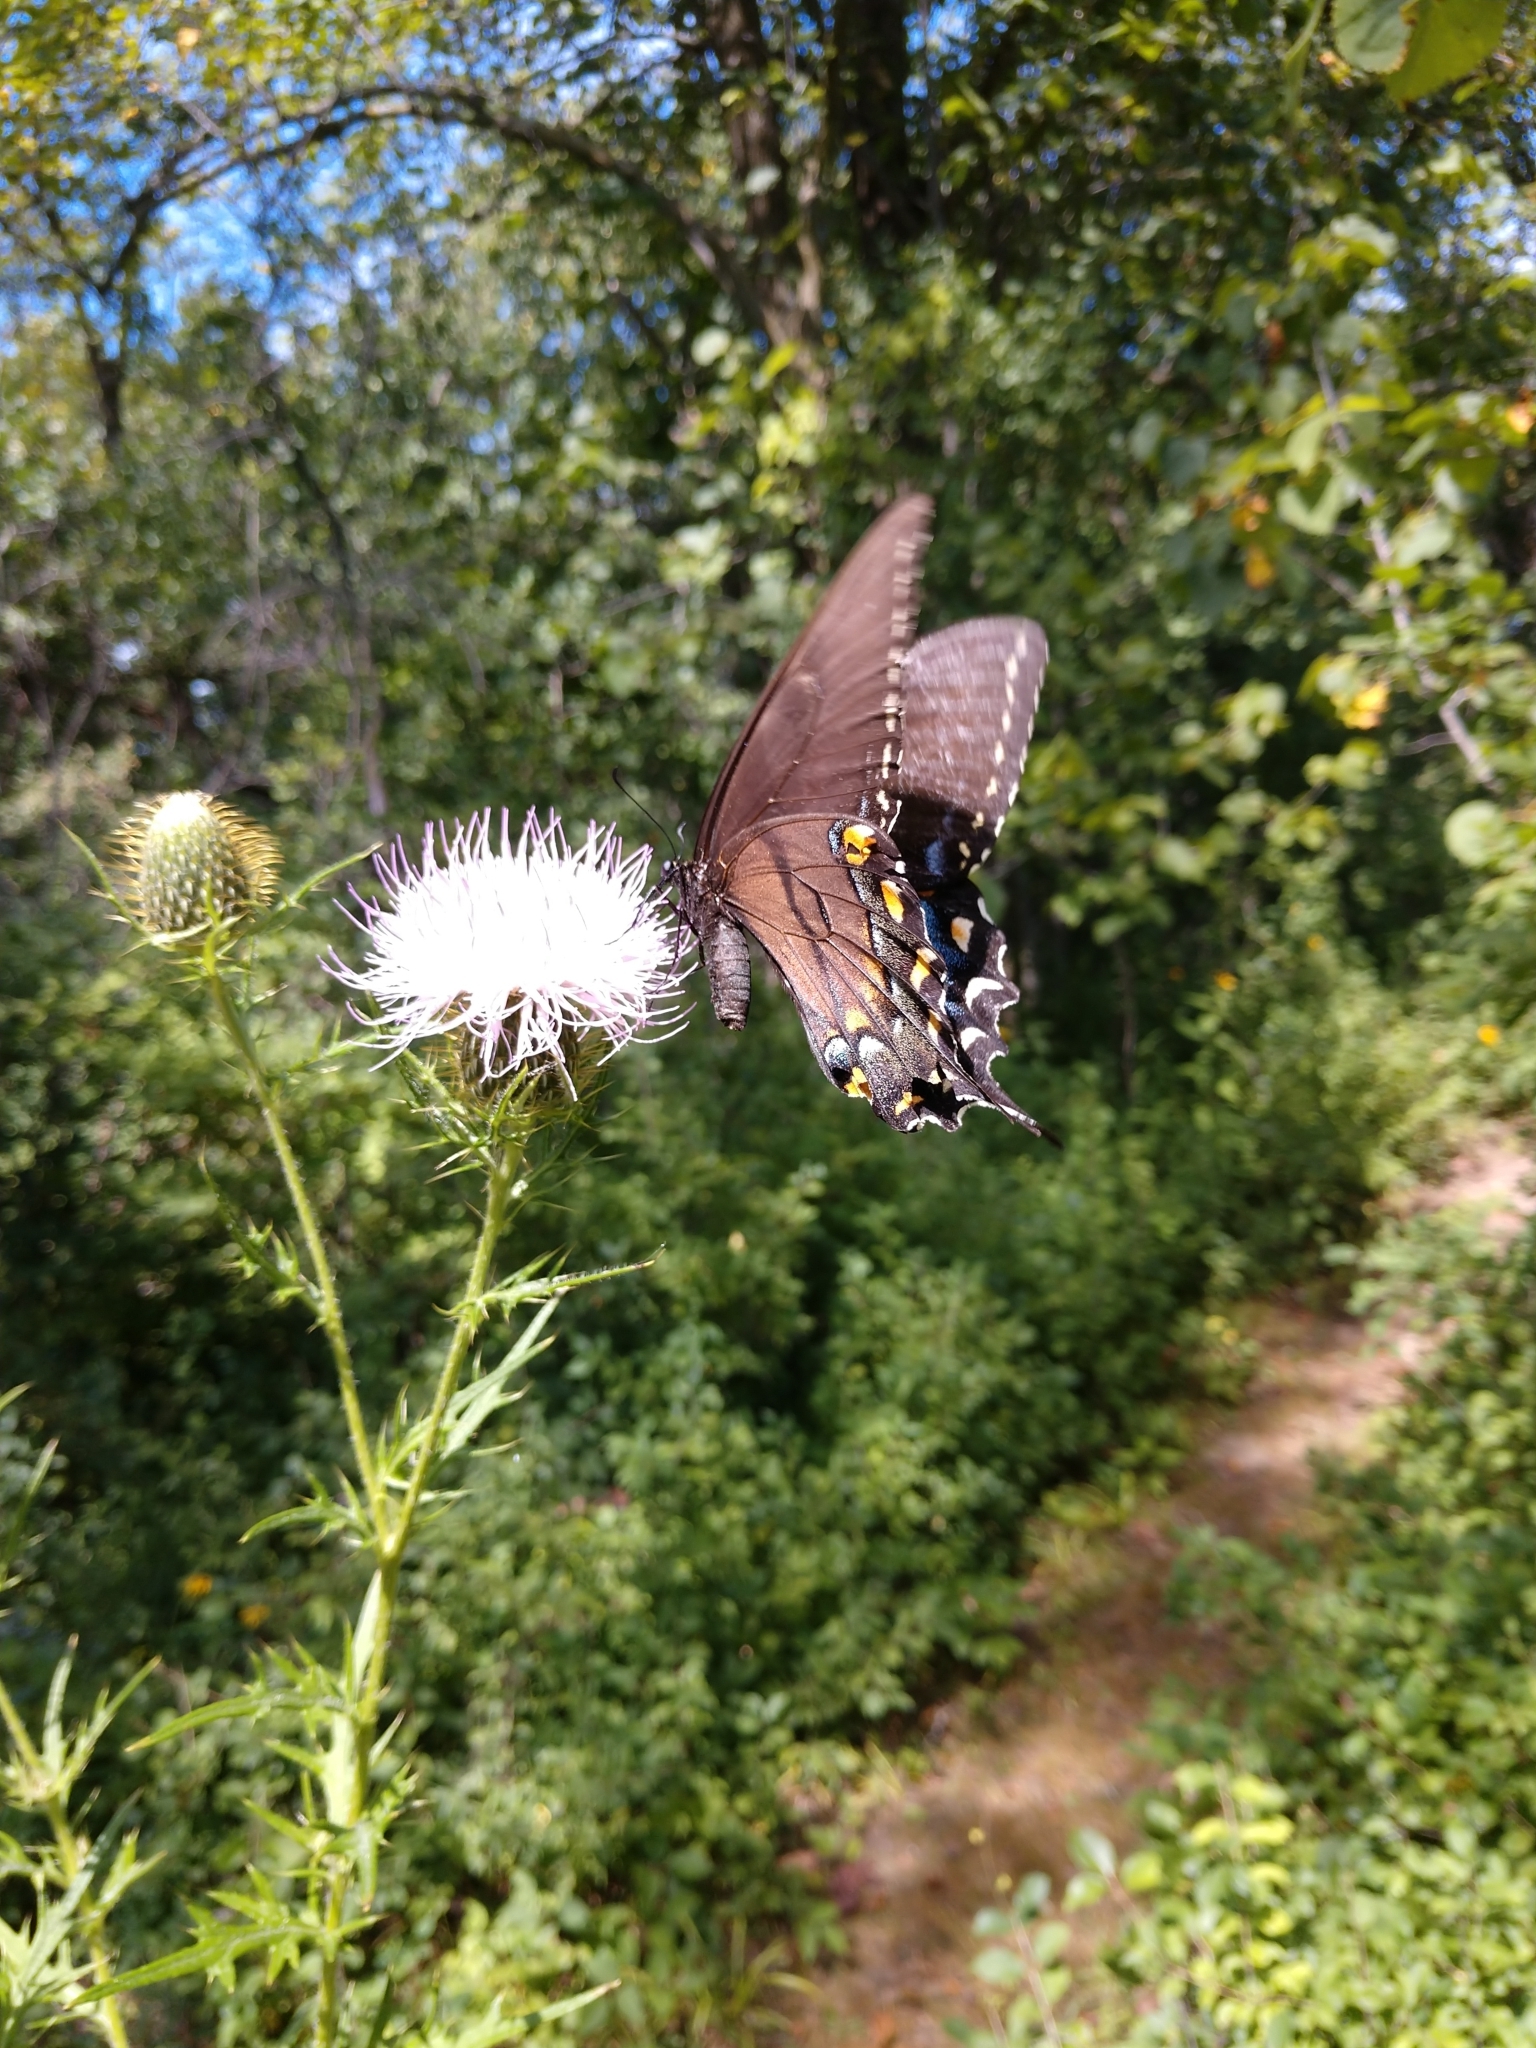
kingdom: Animalia
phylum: Arthropoda
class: Insecta
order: Lepidoptera
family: Papilionidae
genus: Papilio
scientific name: Papilio glaucus
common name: Tiger swallowtail
